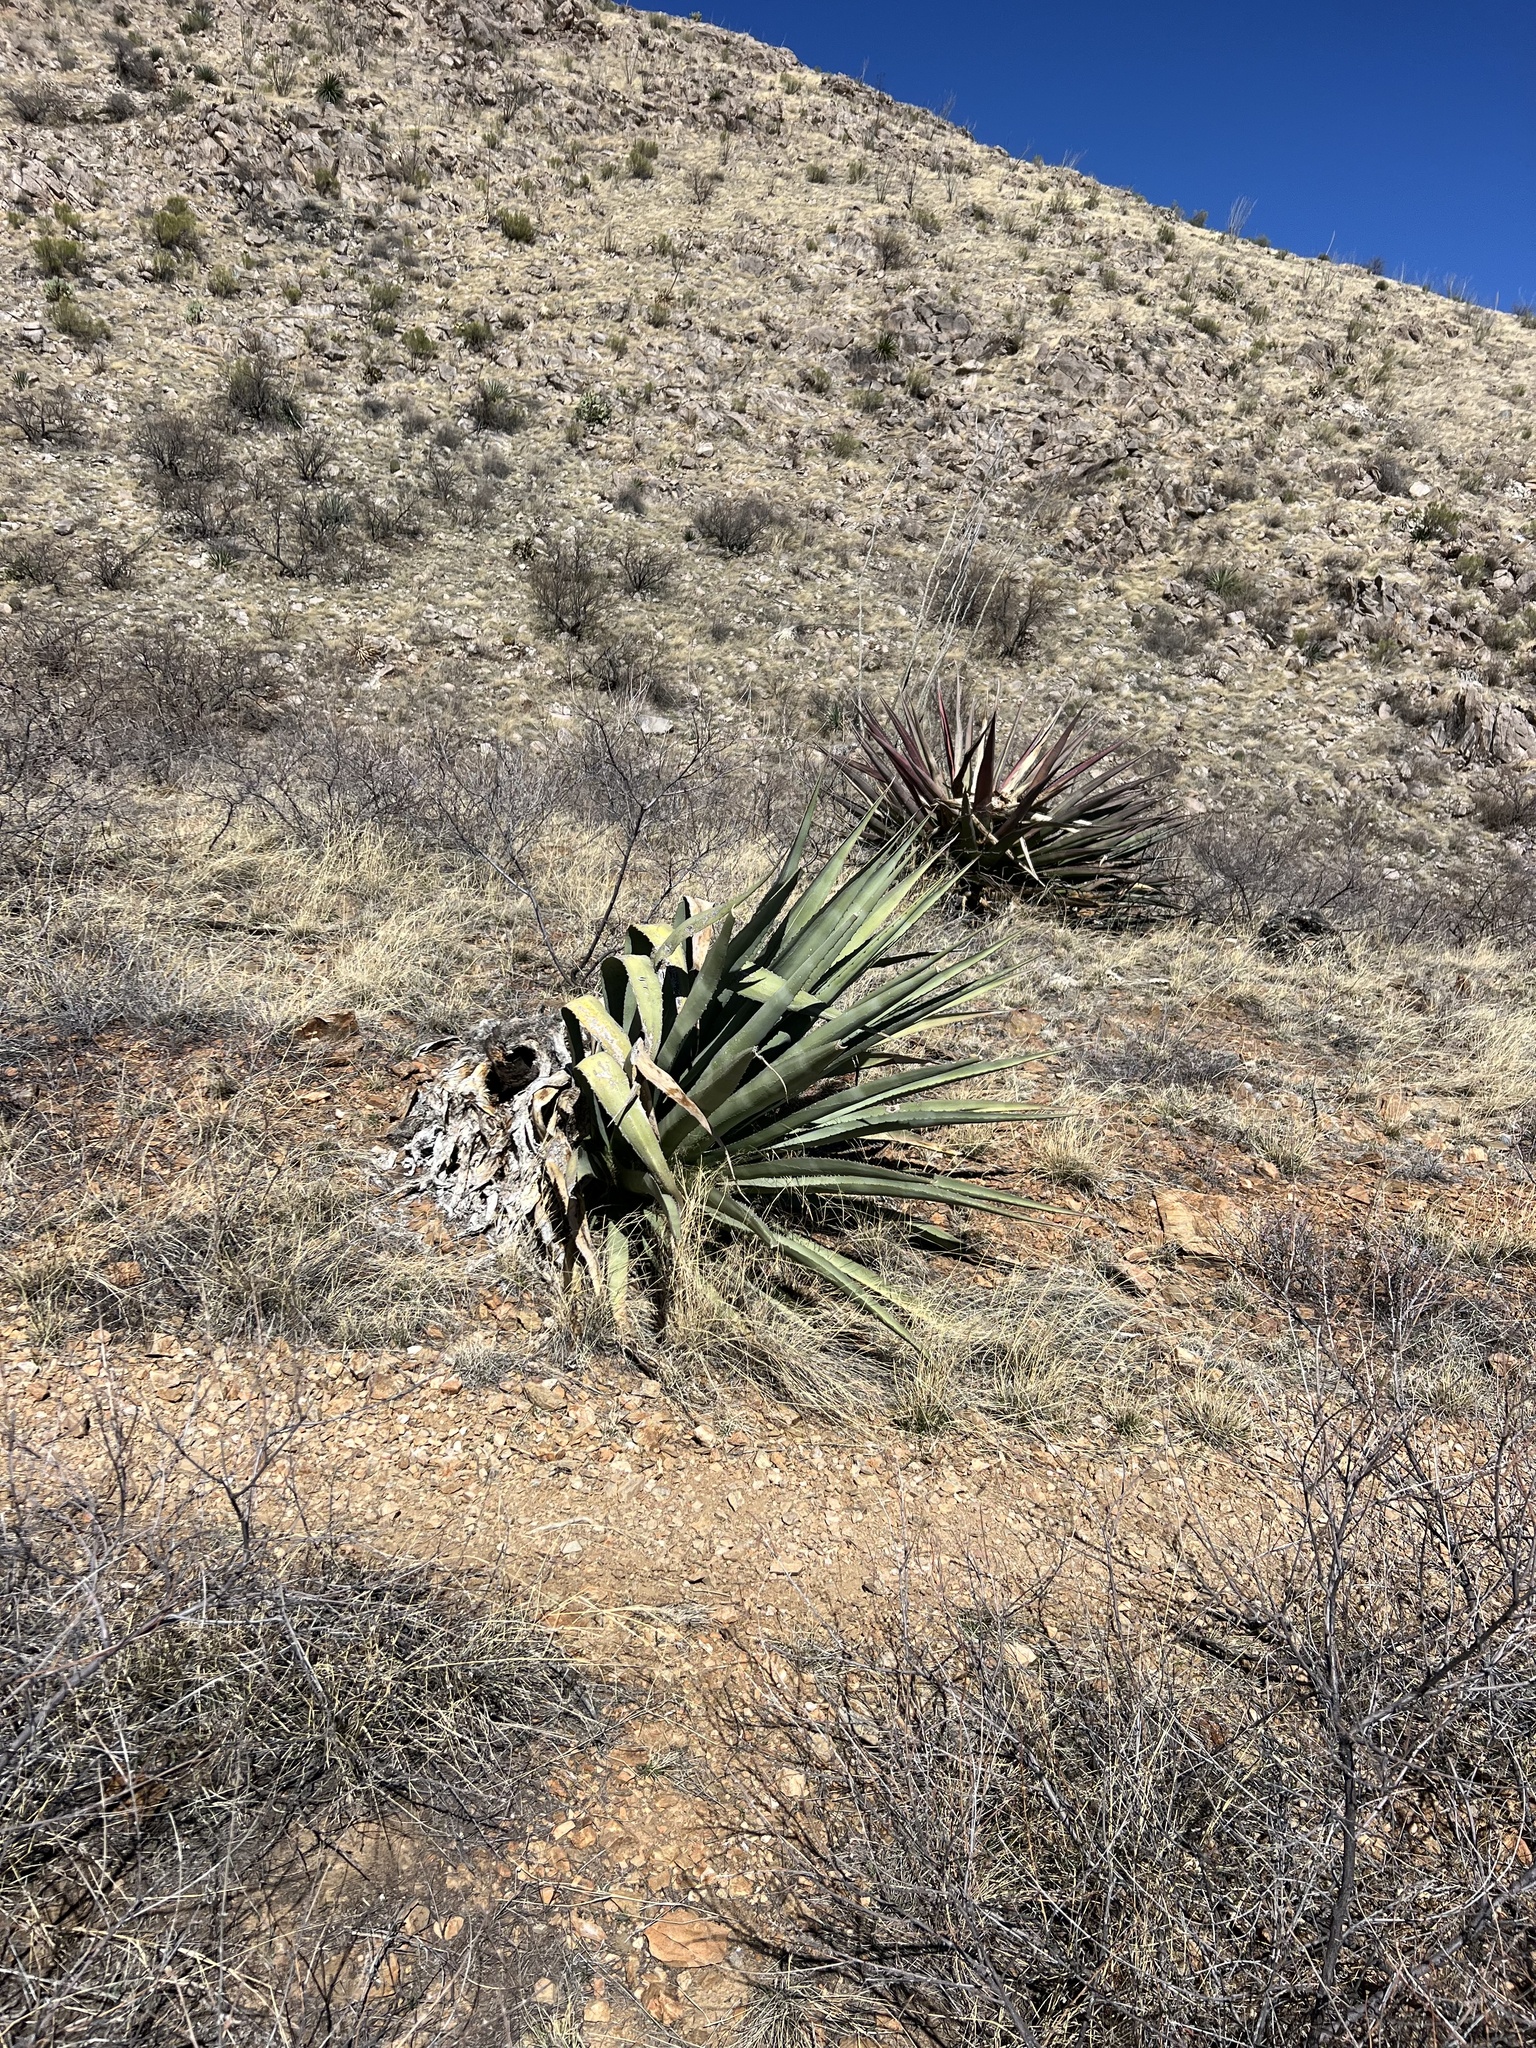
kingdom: Plantae
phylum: Tracheophyta
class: Liliopsida
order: Asparagales
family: Asparagaceae
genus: Agave
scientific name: Agave palmeri
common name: Palmer agave
